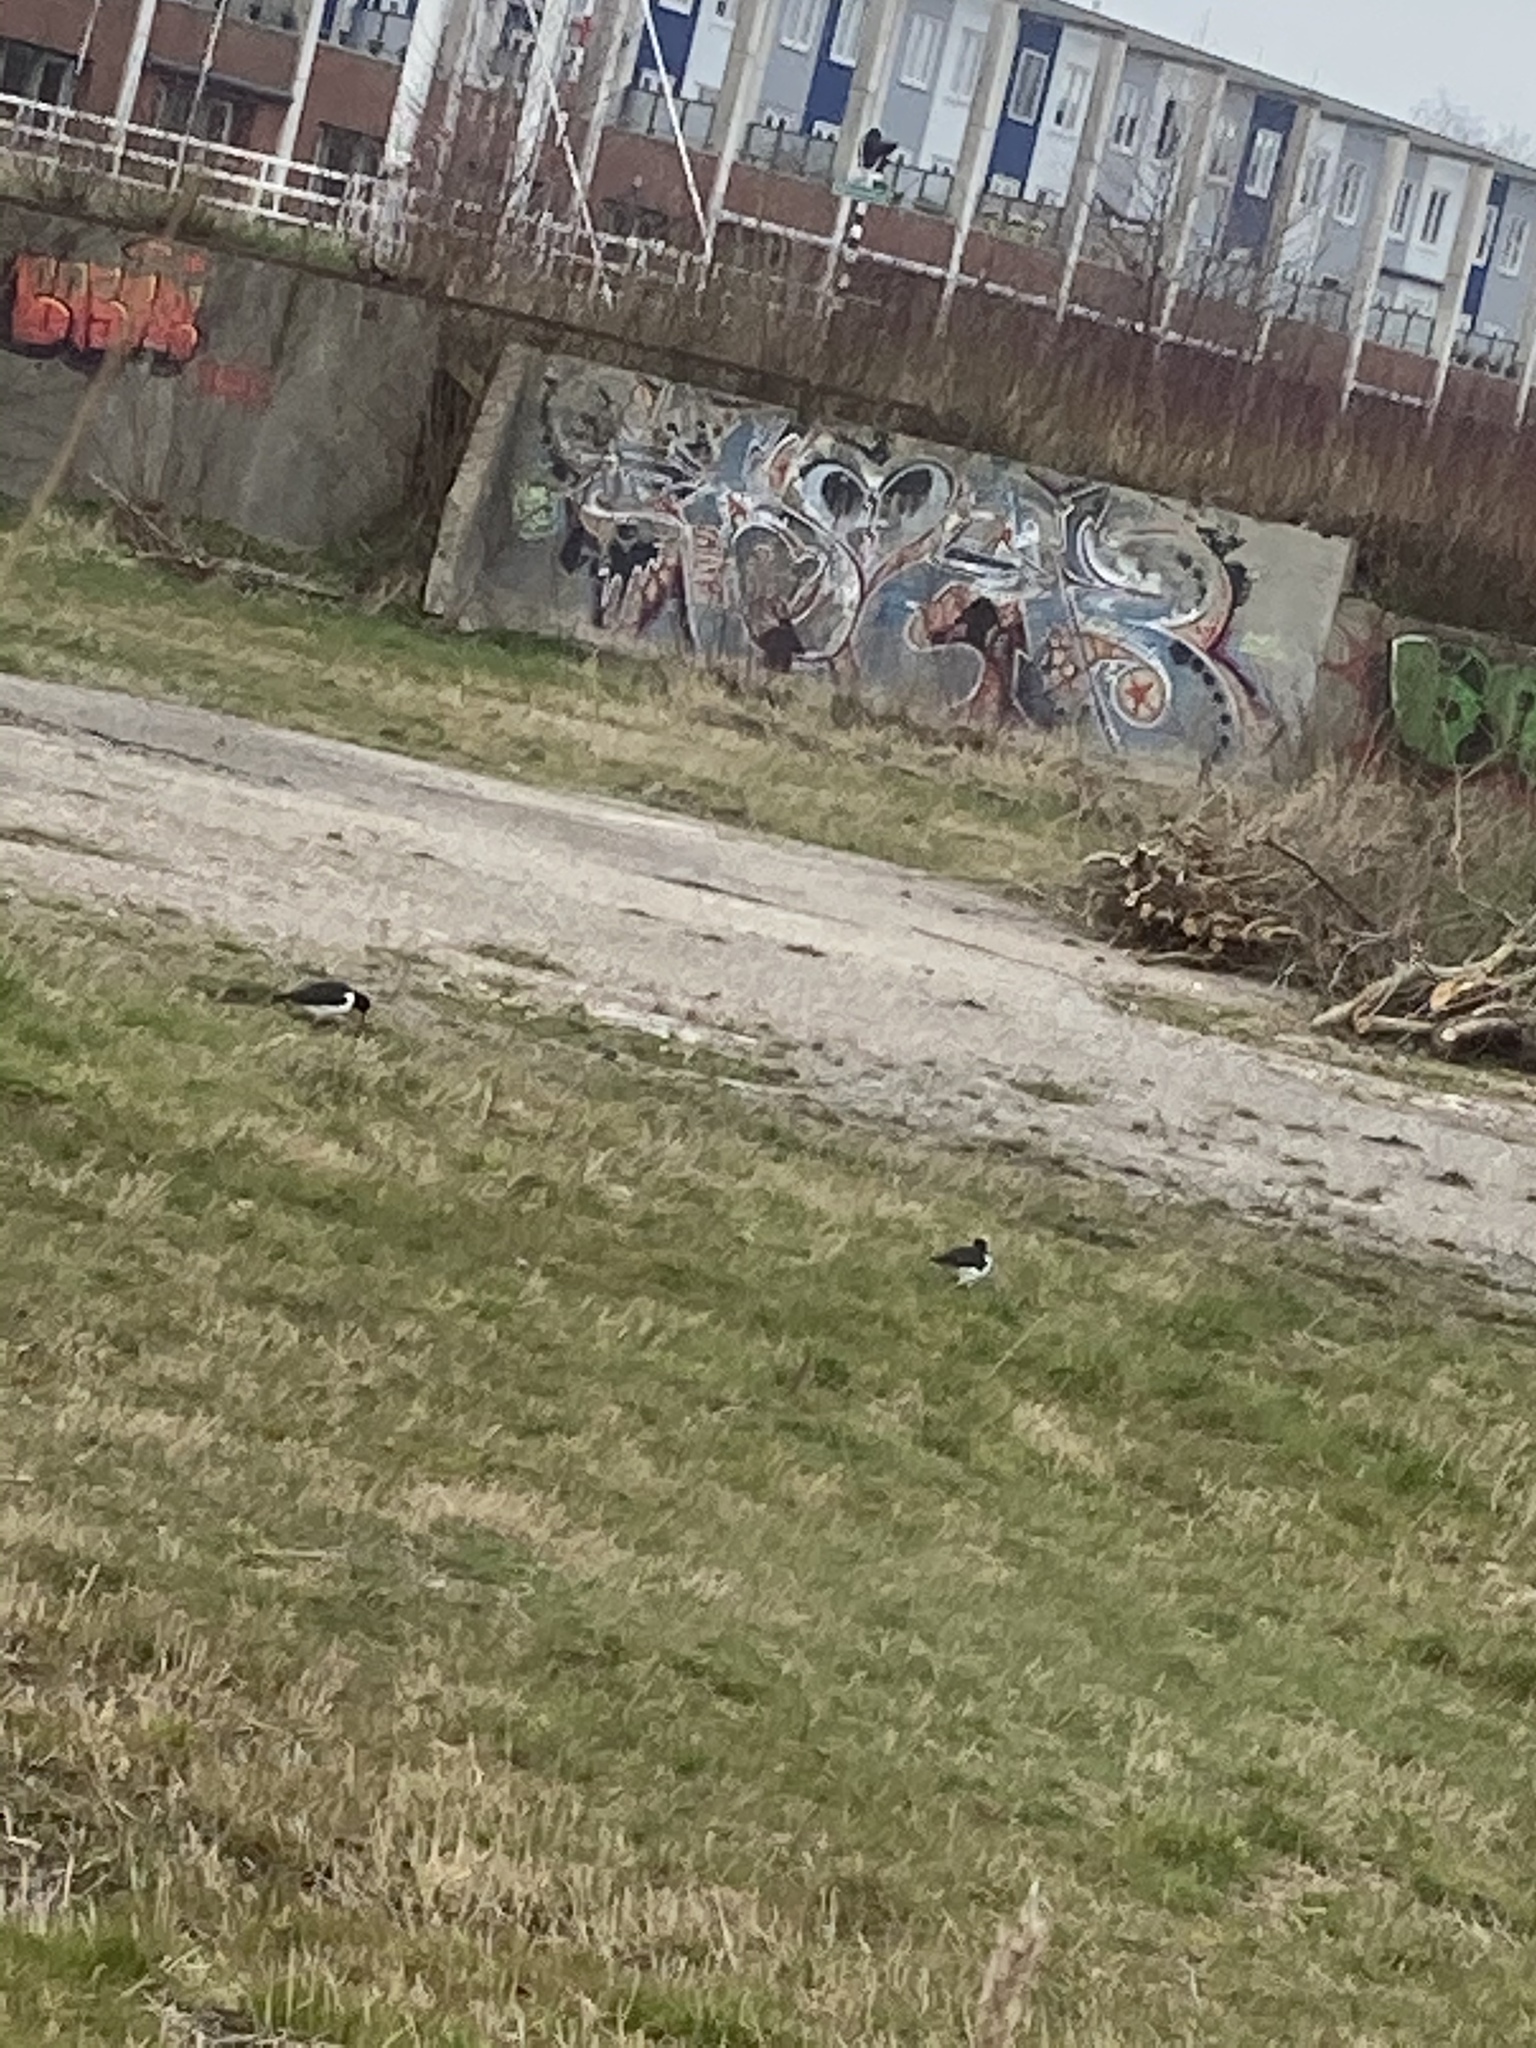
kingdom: Animalia
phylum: Chordata
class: Aves
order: Charadriiformes
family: Haematopodidae
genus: Haematopus
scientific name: Haematopus ostralegus
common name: Eurasian oystercatcher
